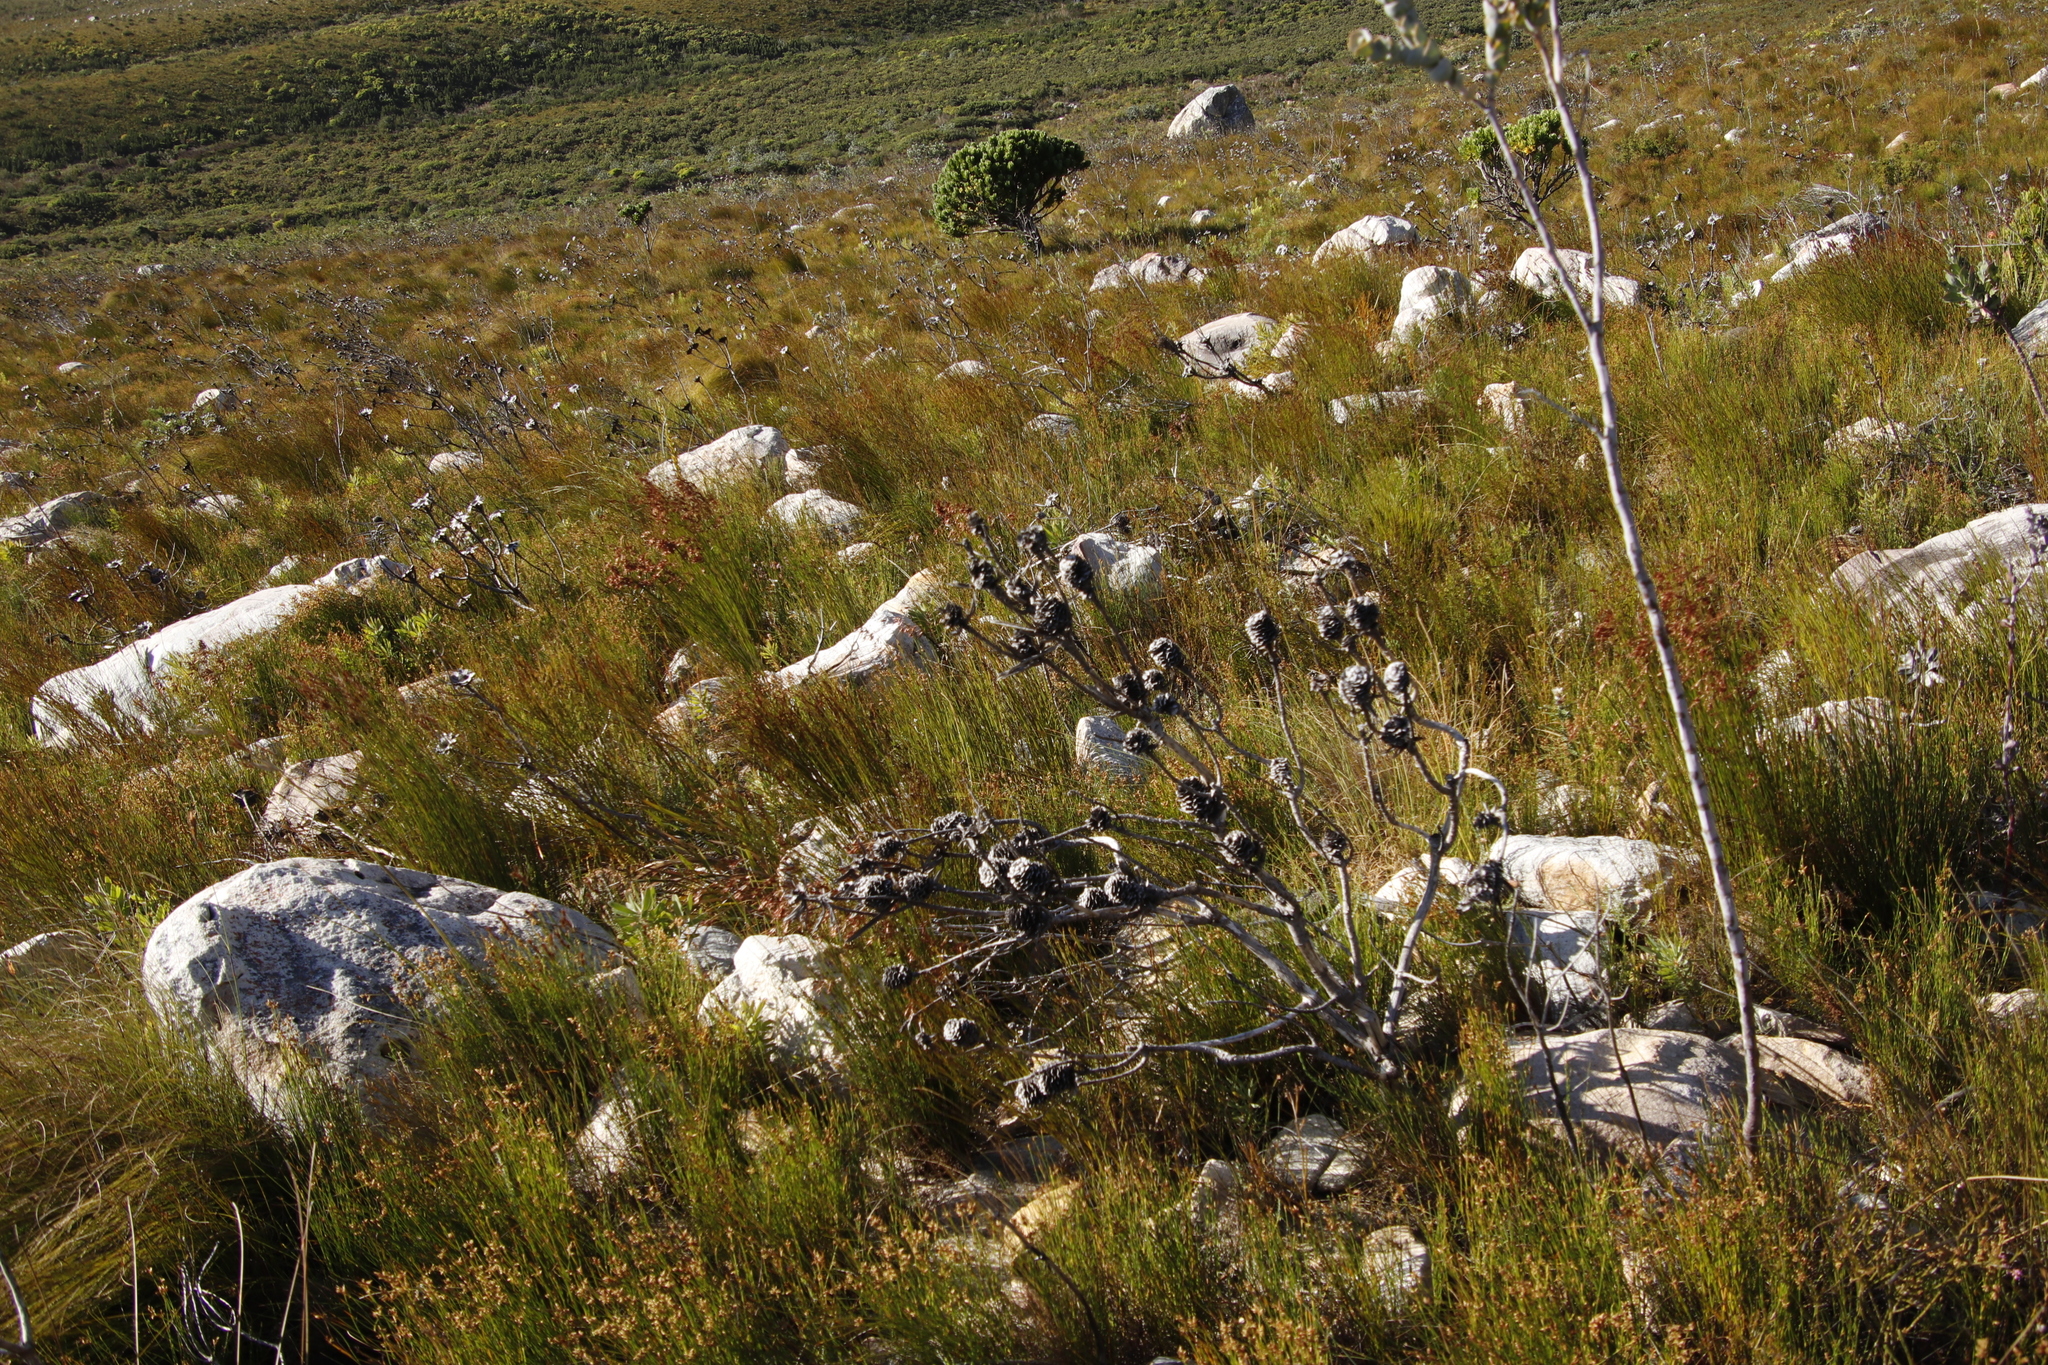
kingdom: Plantae
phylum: Tracheophyta
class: Magnoliopsida
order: Proteales
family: Proteaceae
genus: Leucadendron
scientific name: Leucadendron laureolum
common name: Golden sunshinebush
